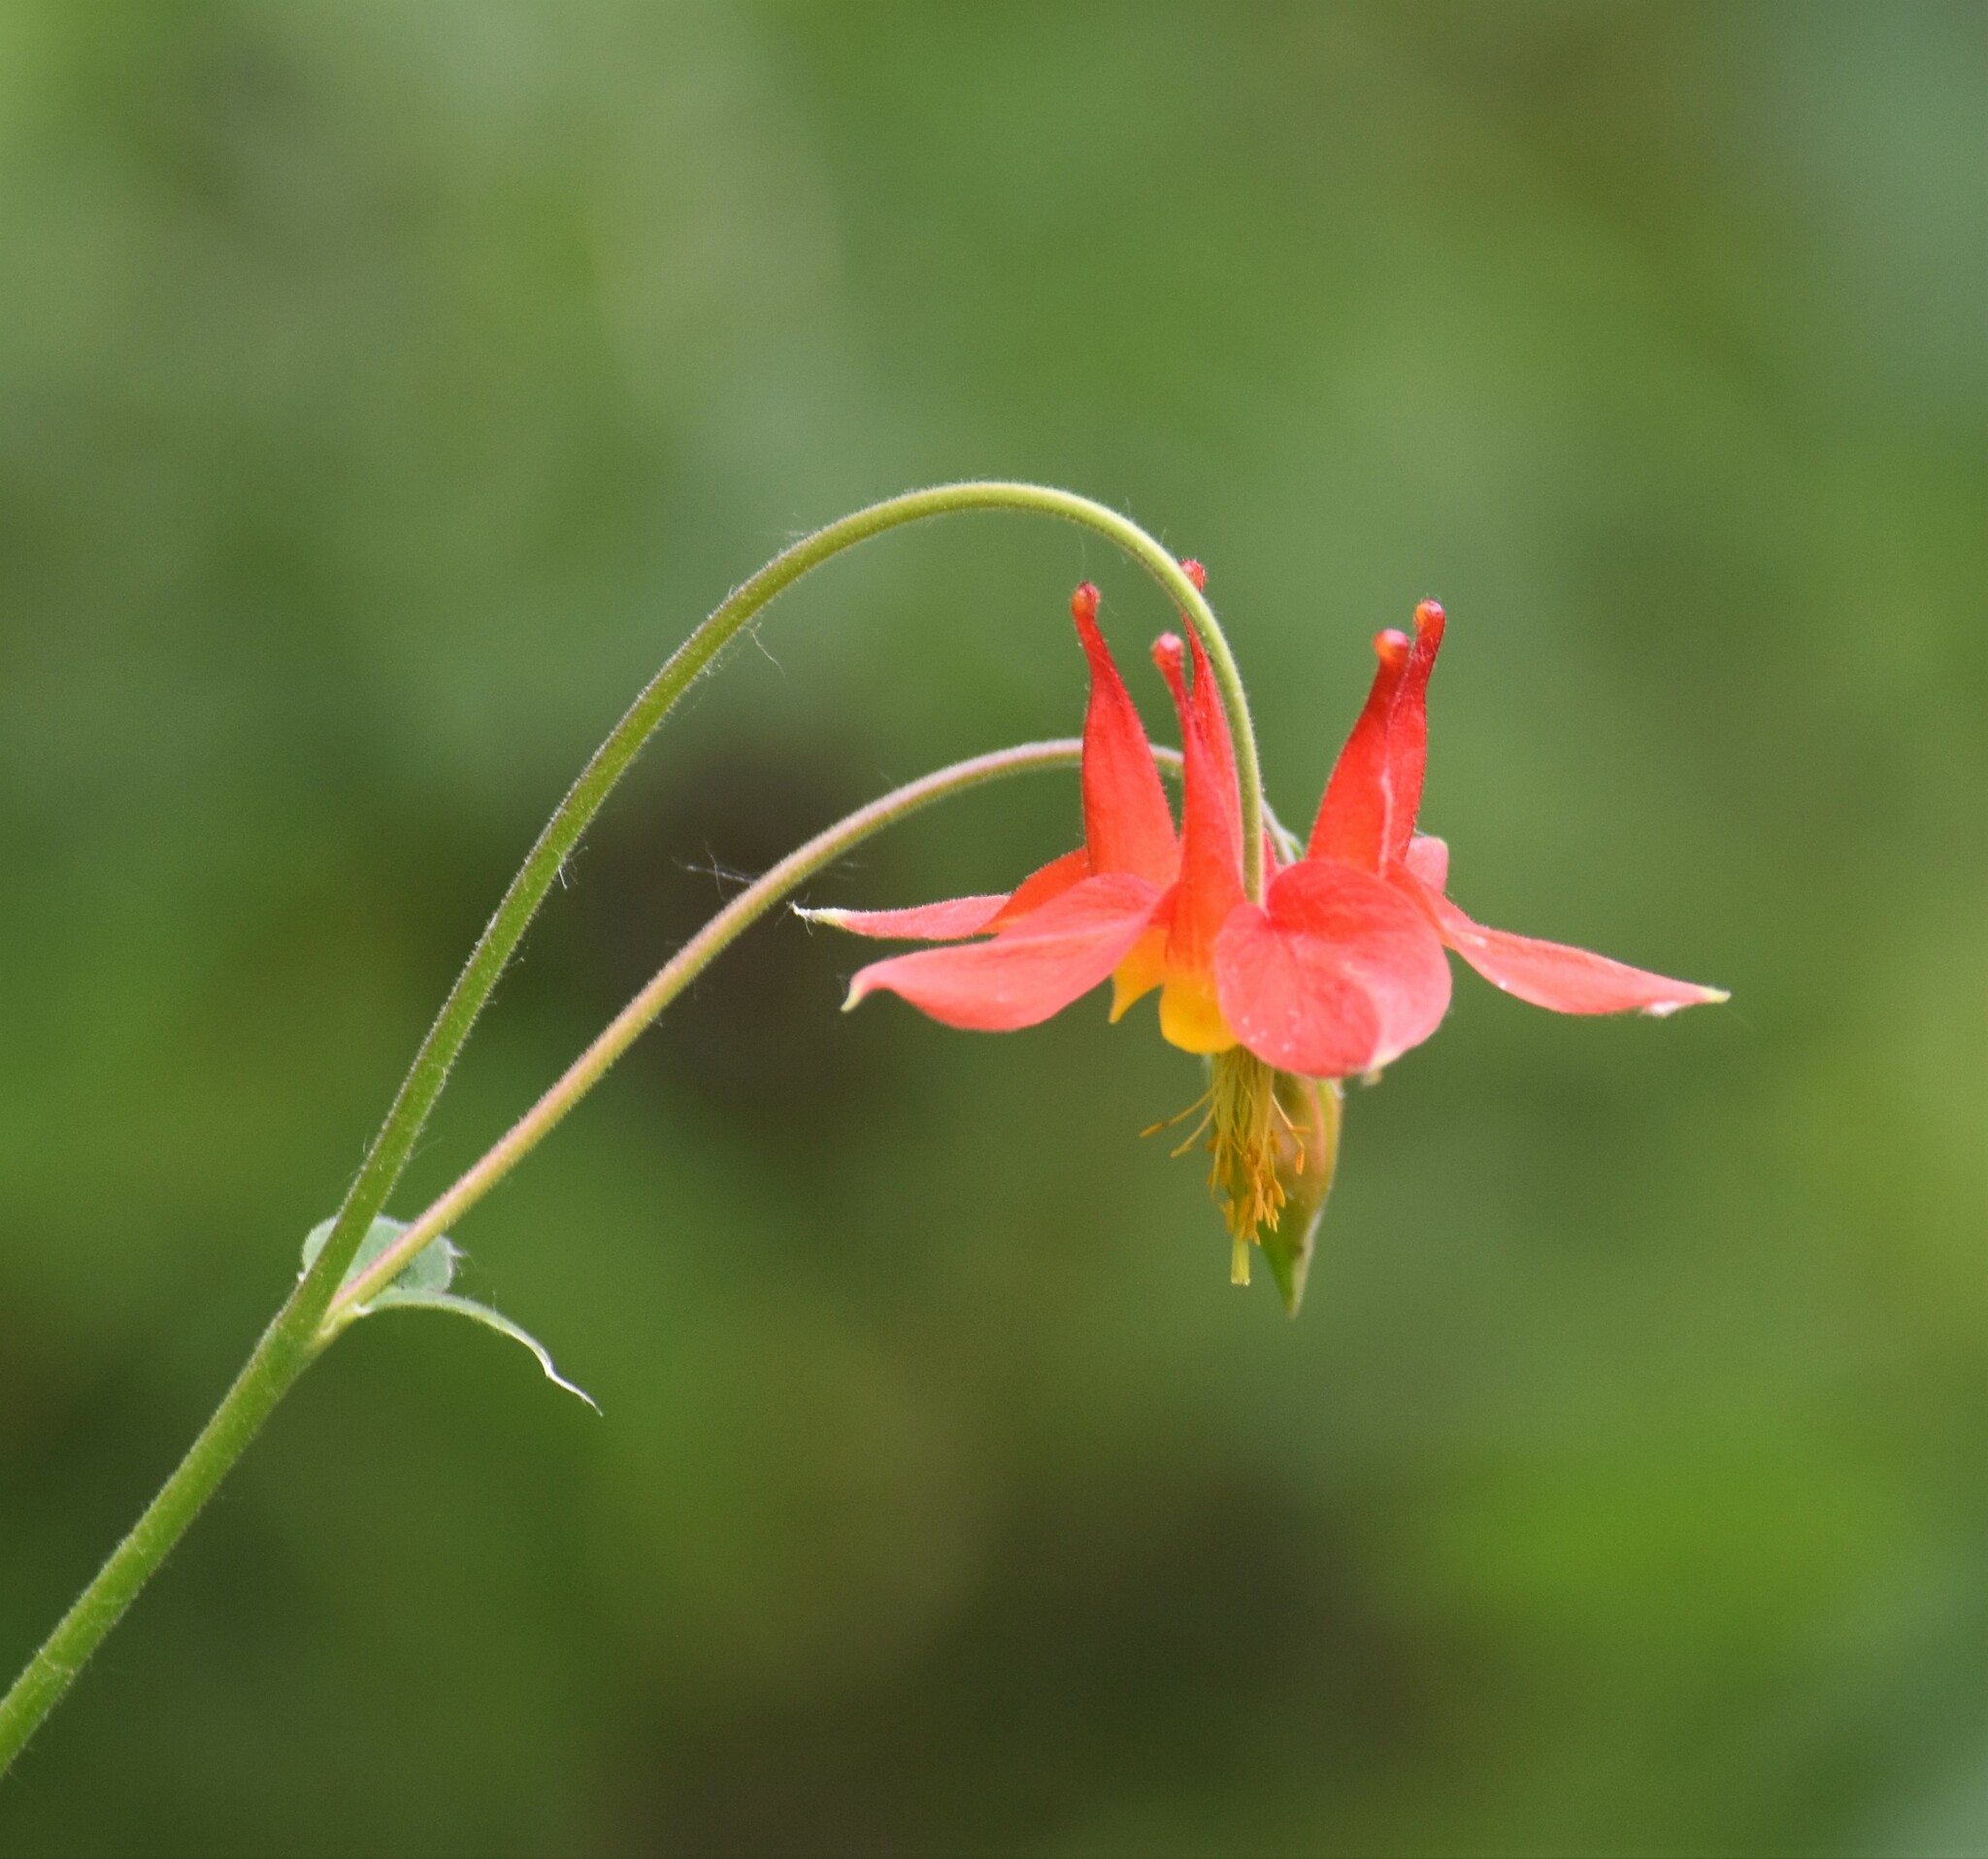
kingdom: Plantae
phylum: Tracheophyta
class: Magnoliopsida
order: Ranunculales
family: Ranunculaceae
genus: Aquilegia
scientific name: Aquilegia formosa
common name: Sitka columbine
